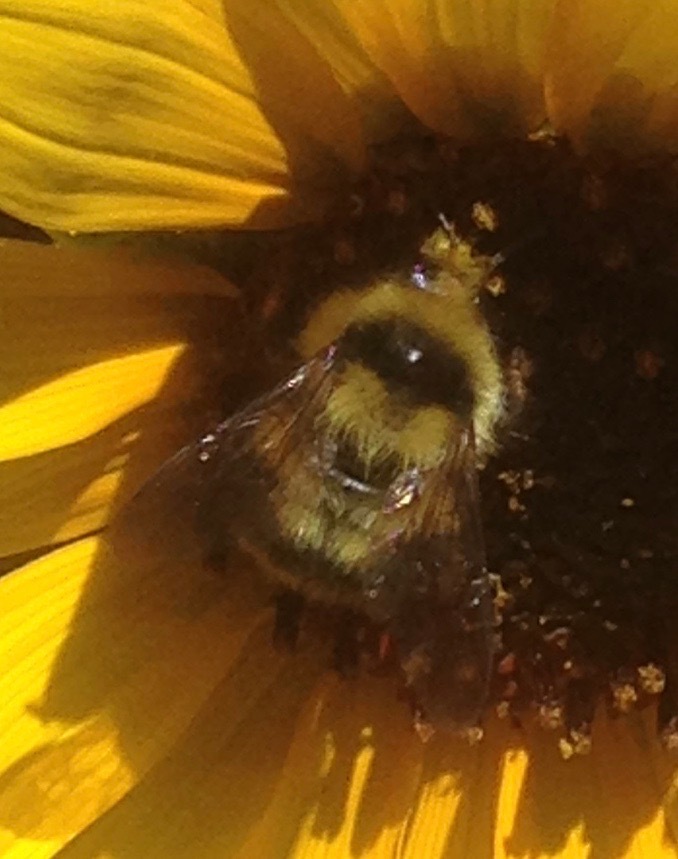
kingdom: Animalia
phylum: Arthropoda
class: Insecta
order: Hymenoptera
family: Apidae
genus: Bombus
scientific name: Bombus melanopygus
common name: Black tail bumble bee
